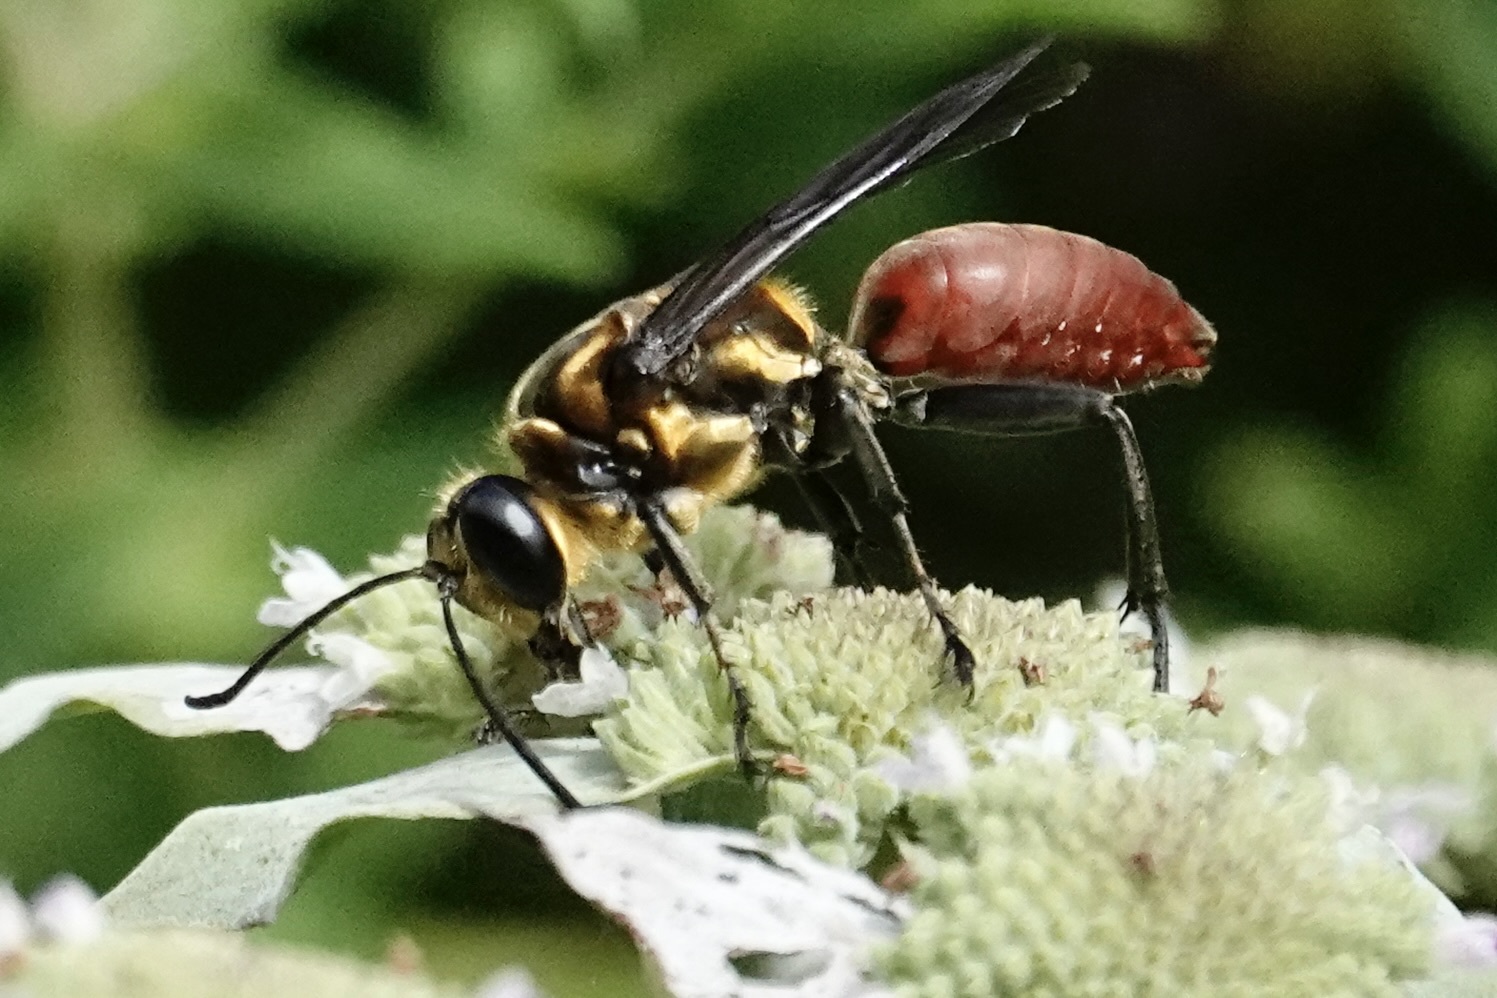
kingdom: Animalia
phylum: Arthropoda
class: Insecta
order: Hymenoptera
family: Sphecidae
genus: Sphex
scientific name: Sphex habenus
